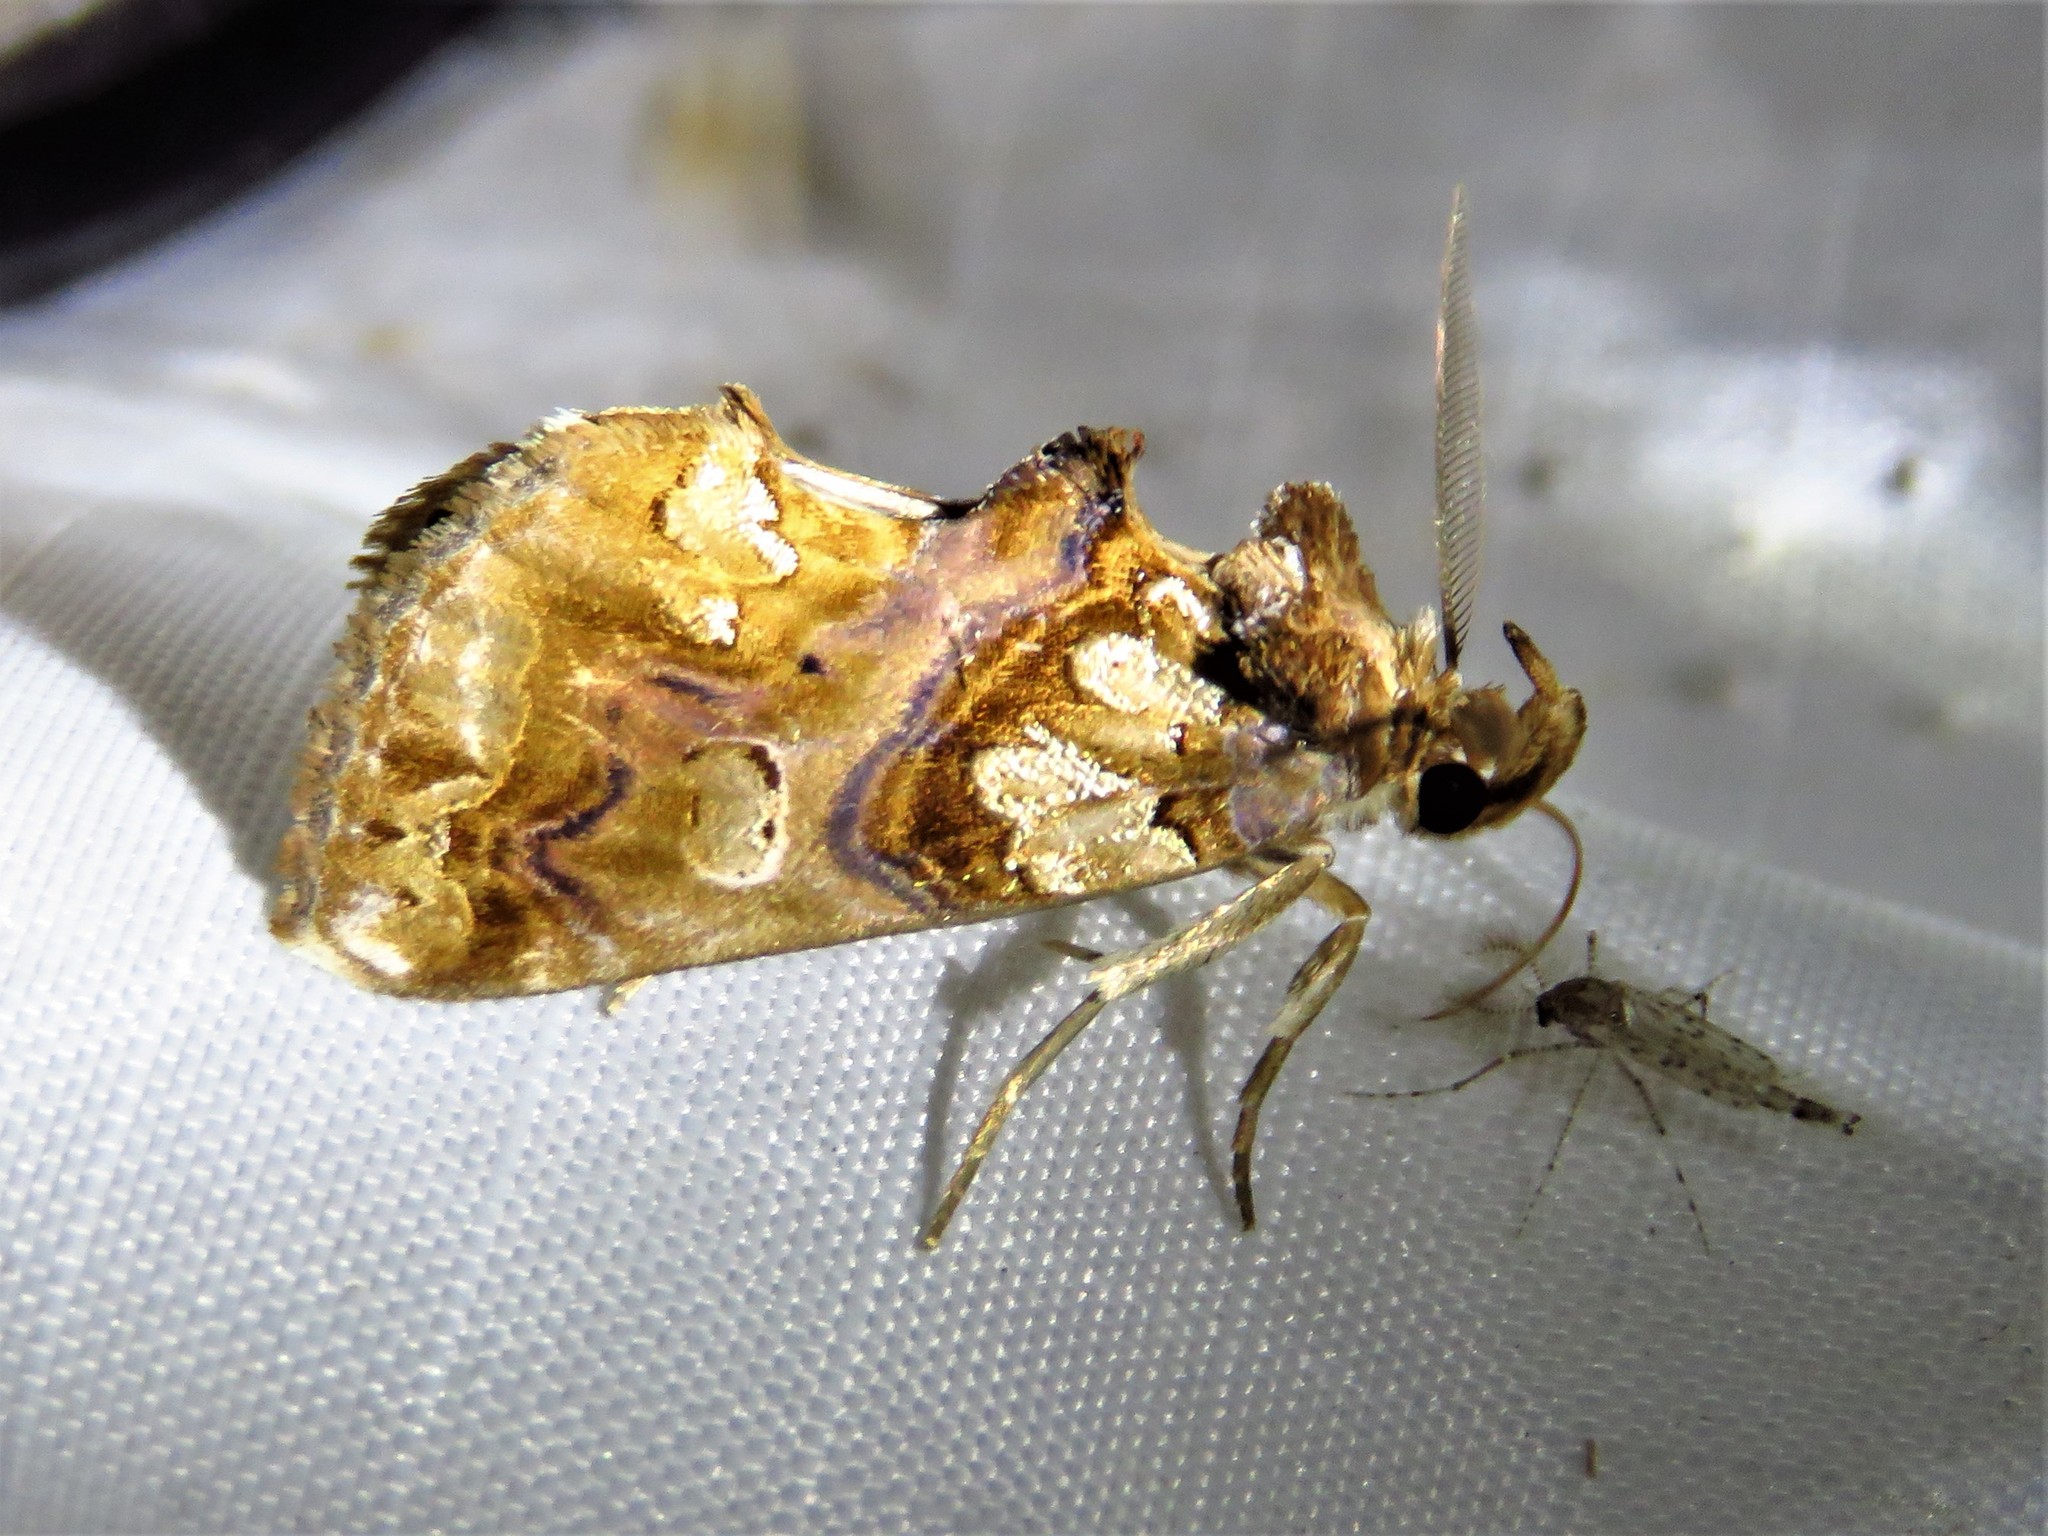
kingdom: Animalia
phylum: Arthropoda
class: Insecta
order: Lepidoptera
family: Erebidae
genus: Plusiodonta
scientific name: Plusiodonta compressipalpis
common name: Moonseed moth
